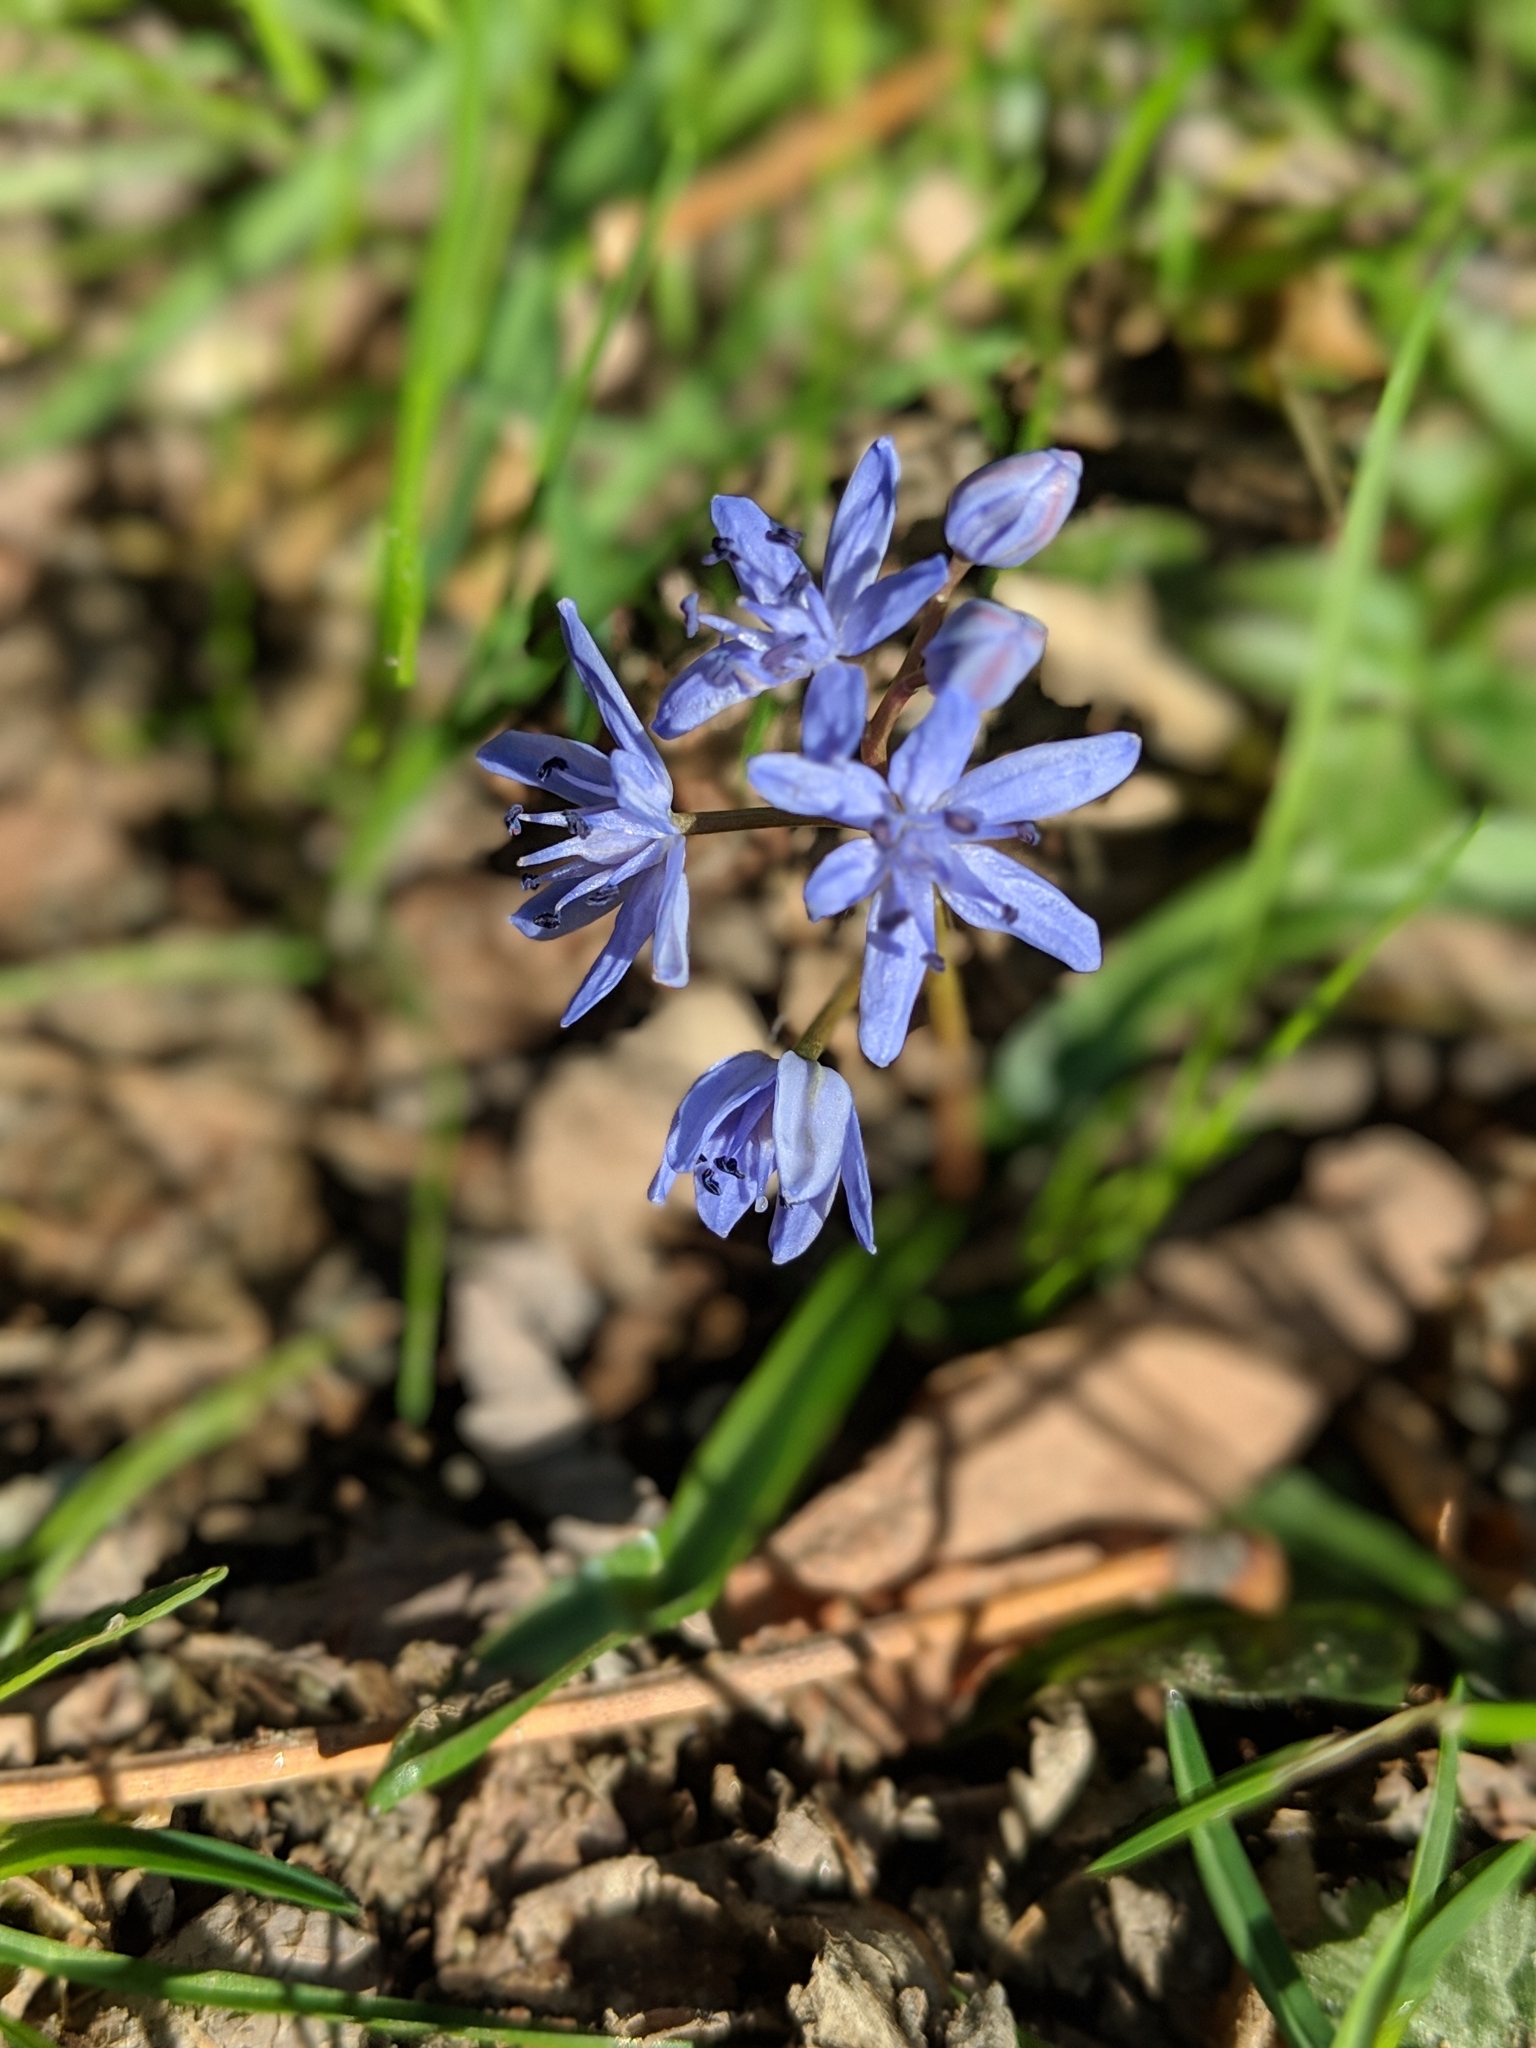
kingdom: Plantae
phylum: Tracheophyta
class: Liliopsida
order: Asparagales
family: Asparagaceae
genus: Scilla
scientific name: Scilla bifolia
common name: Alpine squill
